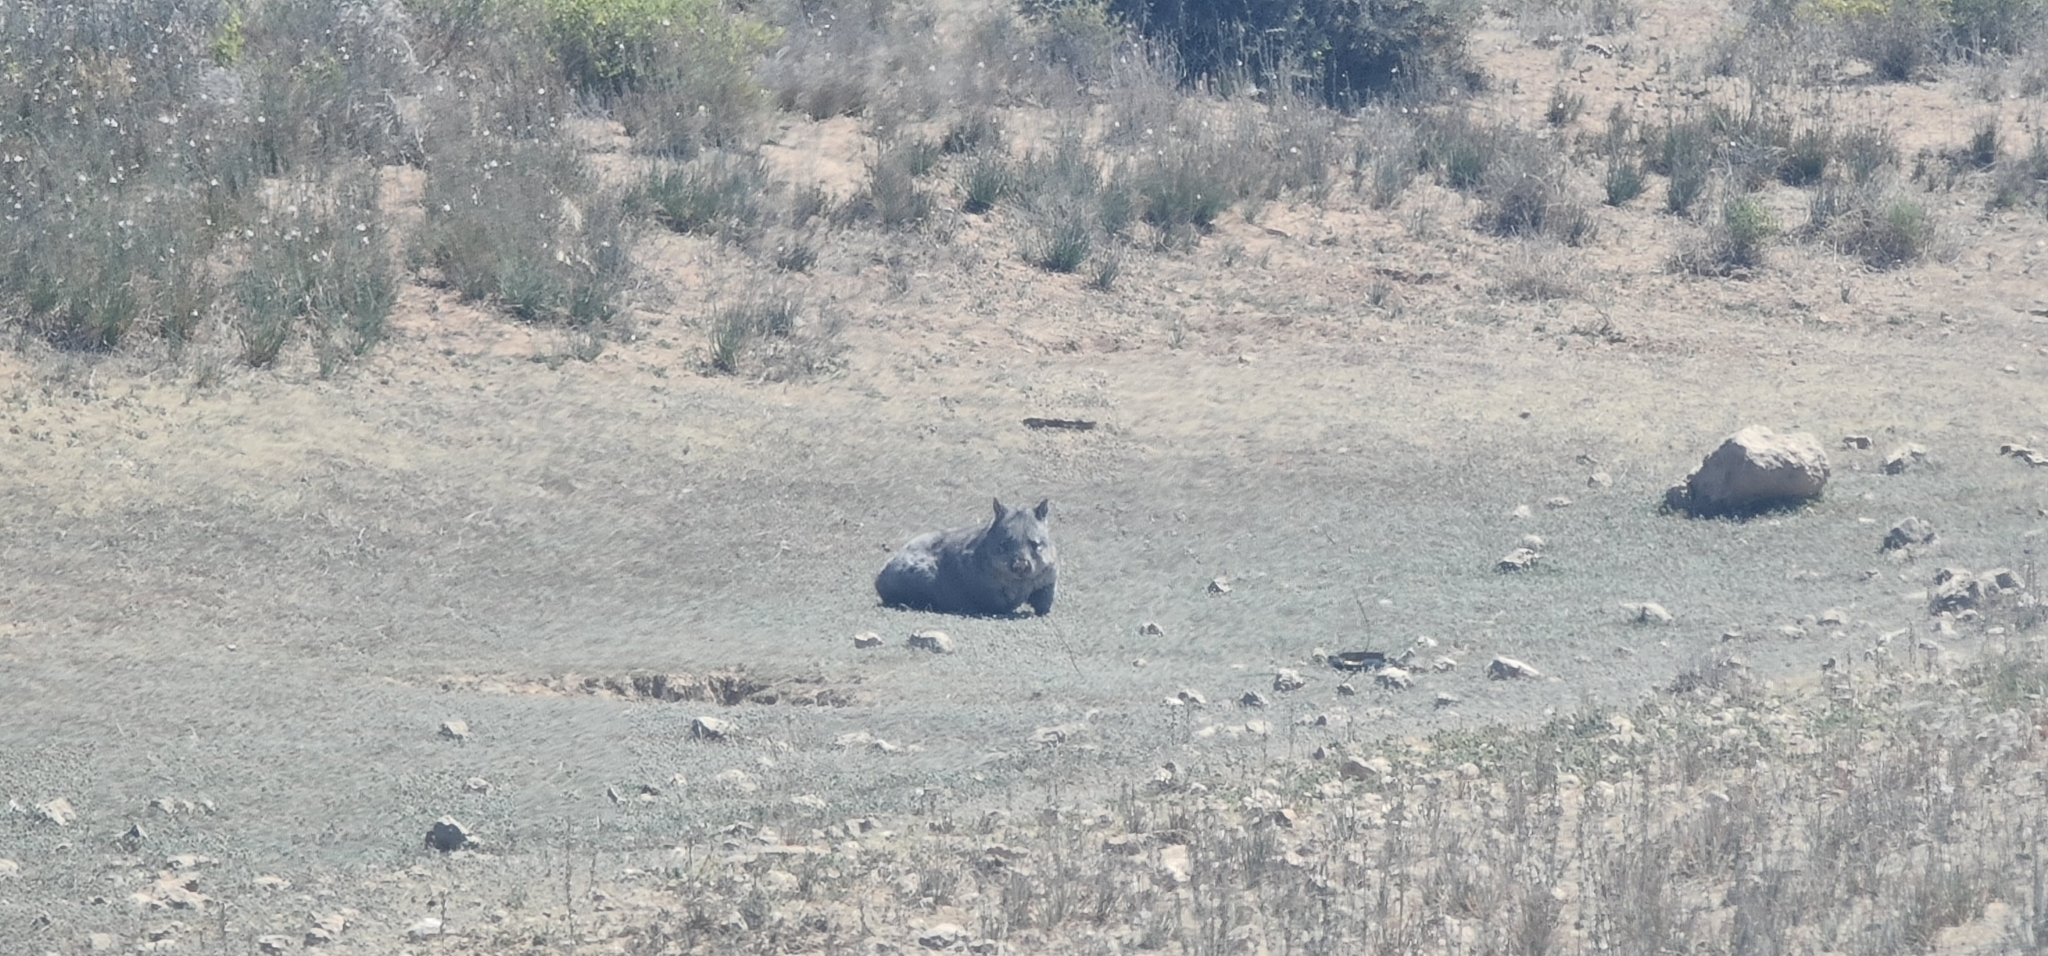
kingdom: Animalia
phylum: Chordata
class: Mammalia
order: Diprotodontia
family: Vombatidae
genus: Lasiorhinus
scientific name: Lasiorhinus latifrons
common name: Southern hairy-nosed wombat
